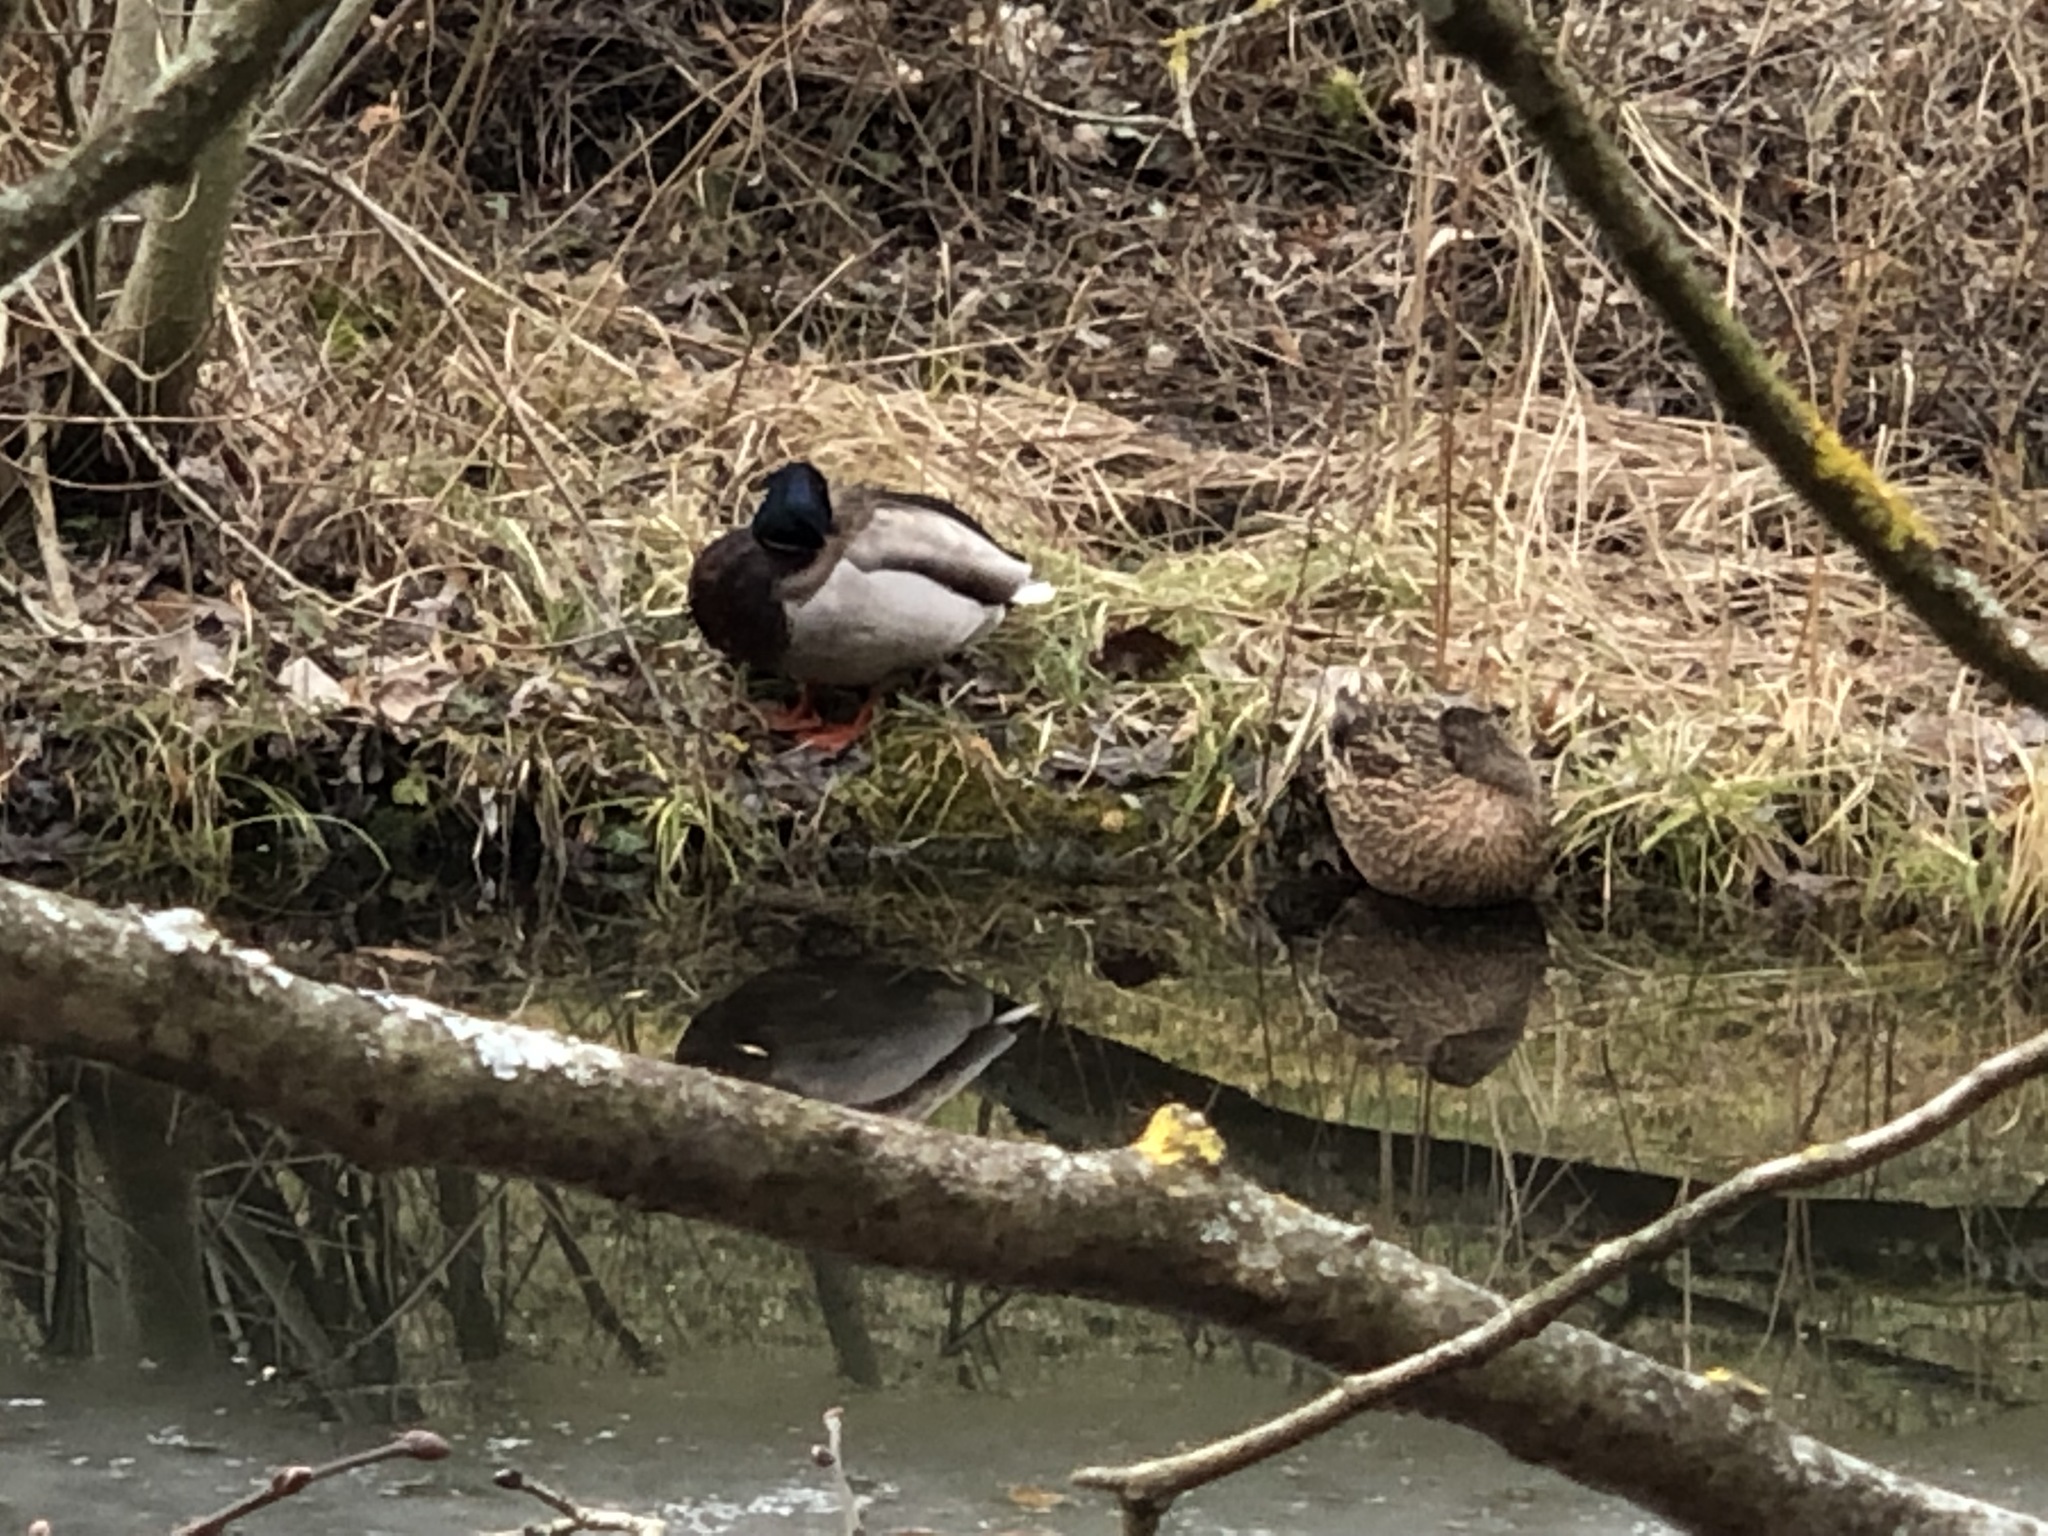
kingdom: Animalia
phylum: Chordata
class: Aves
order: Anseriformes
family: Anatidae
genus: Anas
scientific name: Anas platyrhynchos
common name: Mallard
